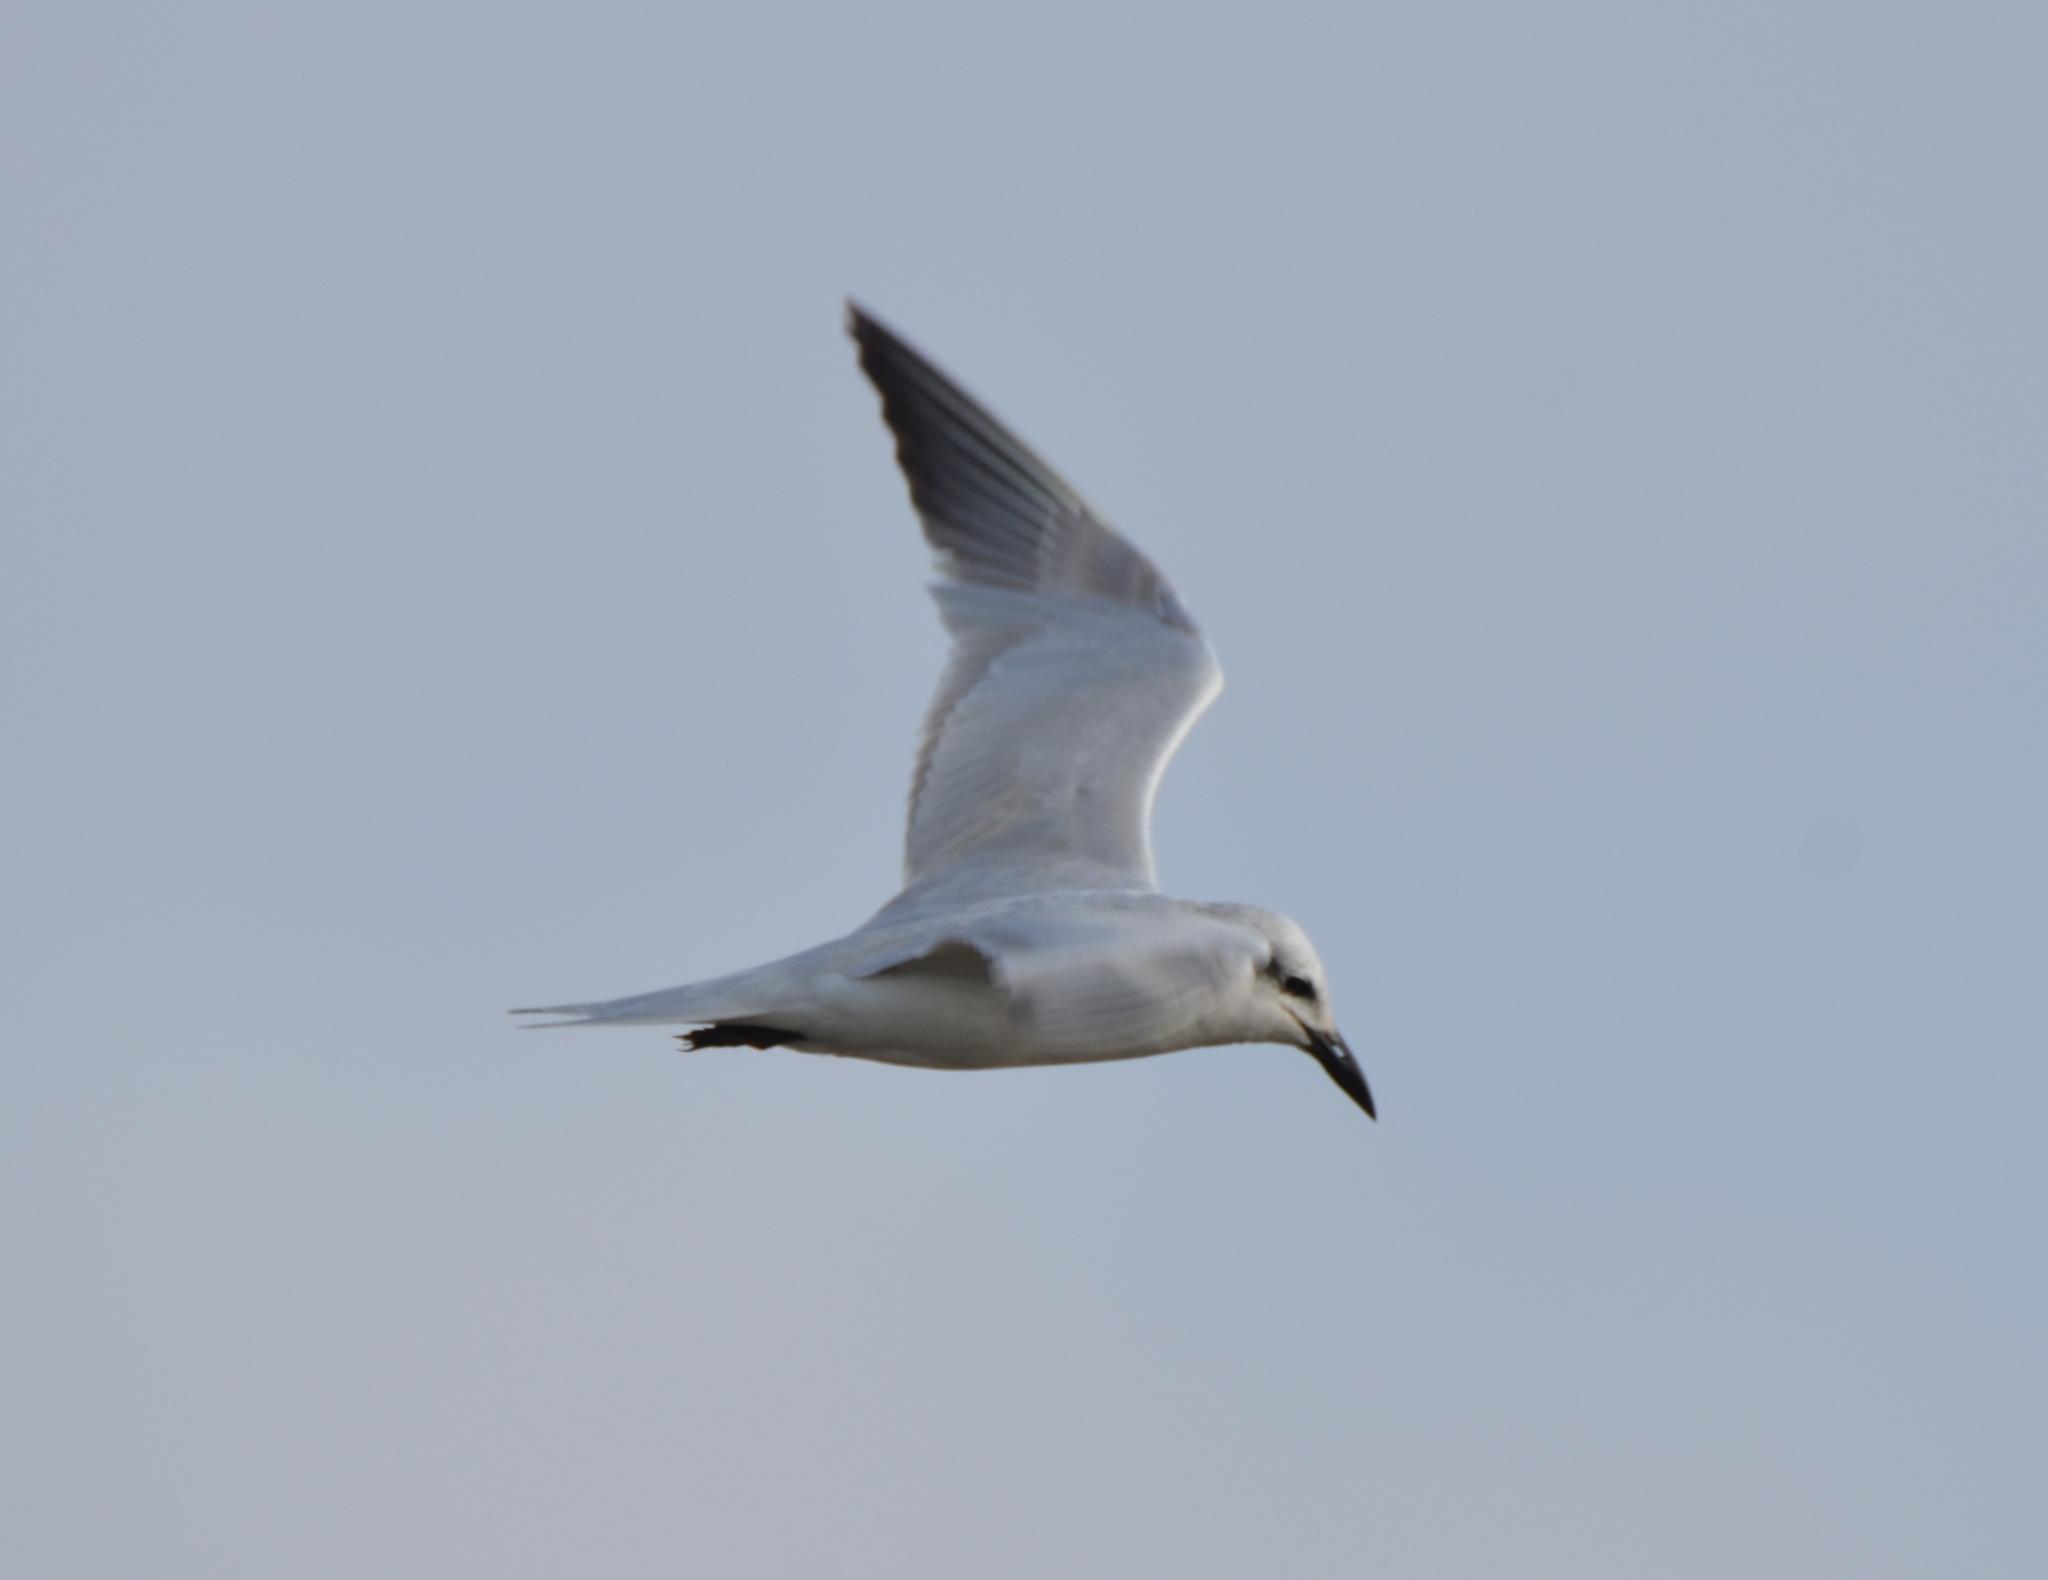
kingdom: Animalia
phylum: Chordata
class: Aves
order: Charadriiformes
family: Laridae
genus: Gelochelidon
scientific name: Gelochelidon nilotica
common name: Gull-billed tern
